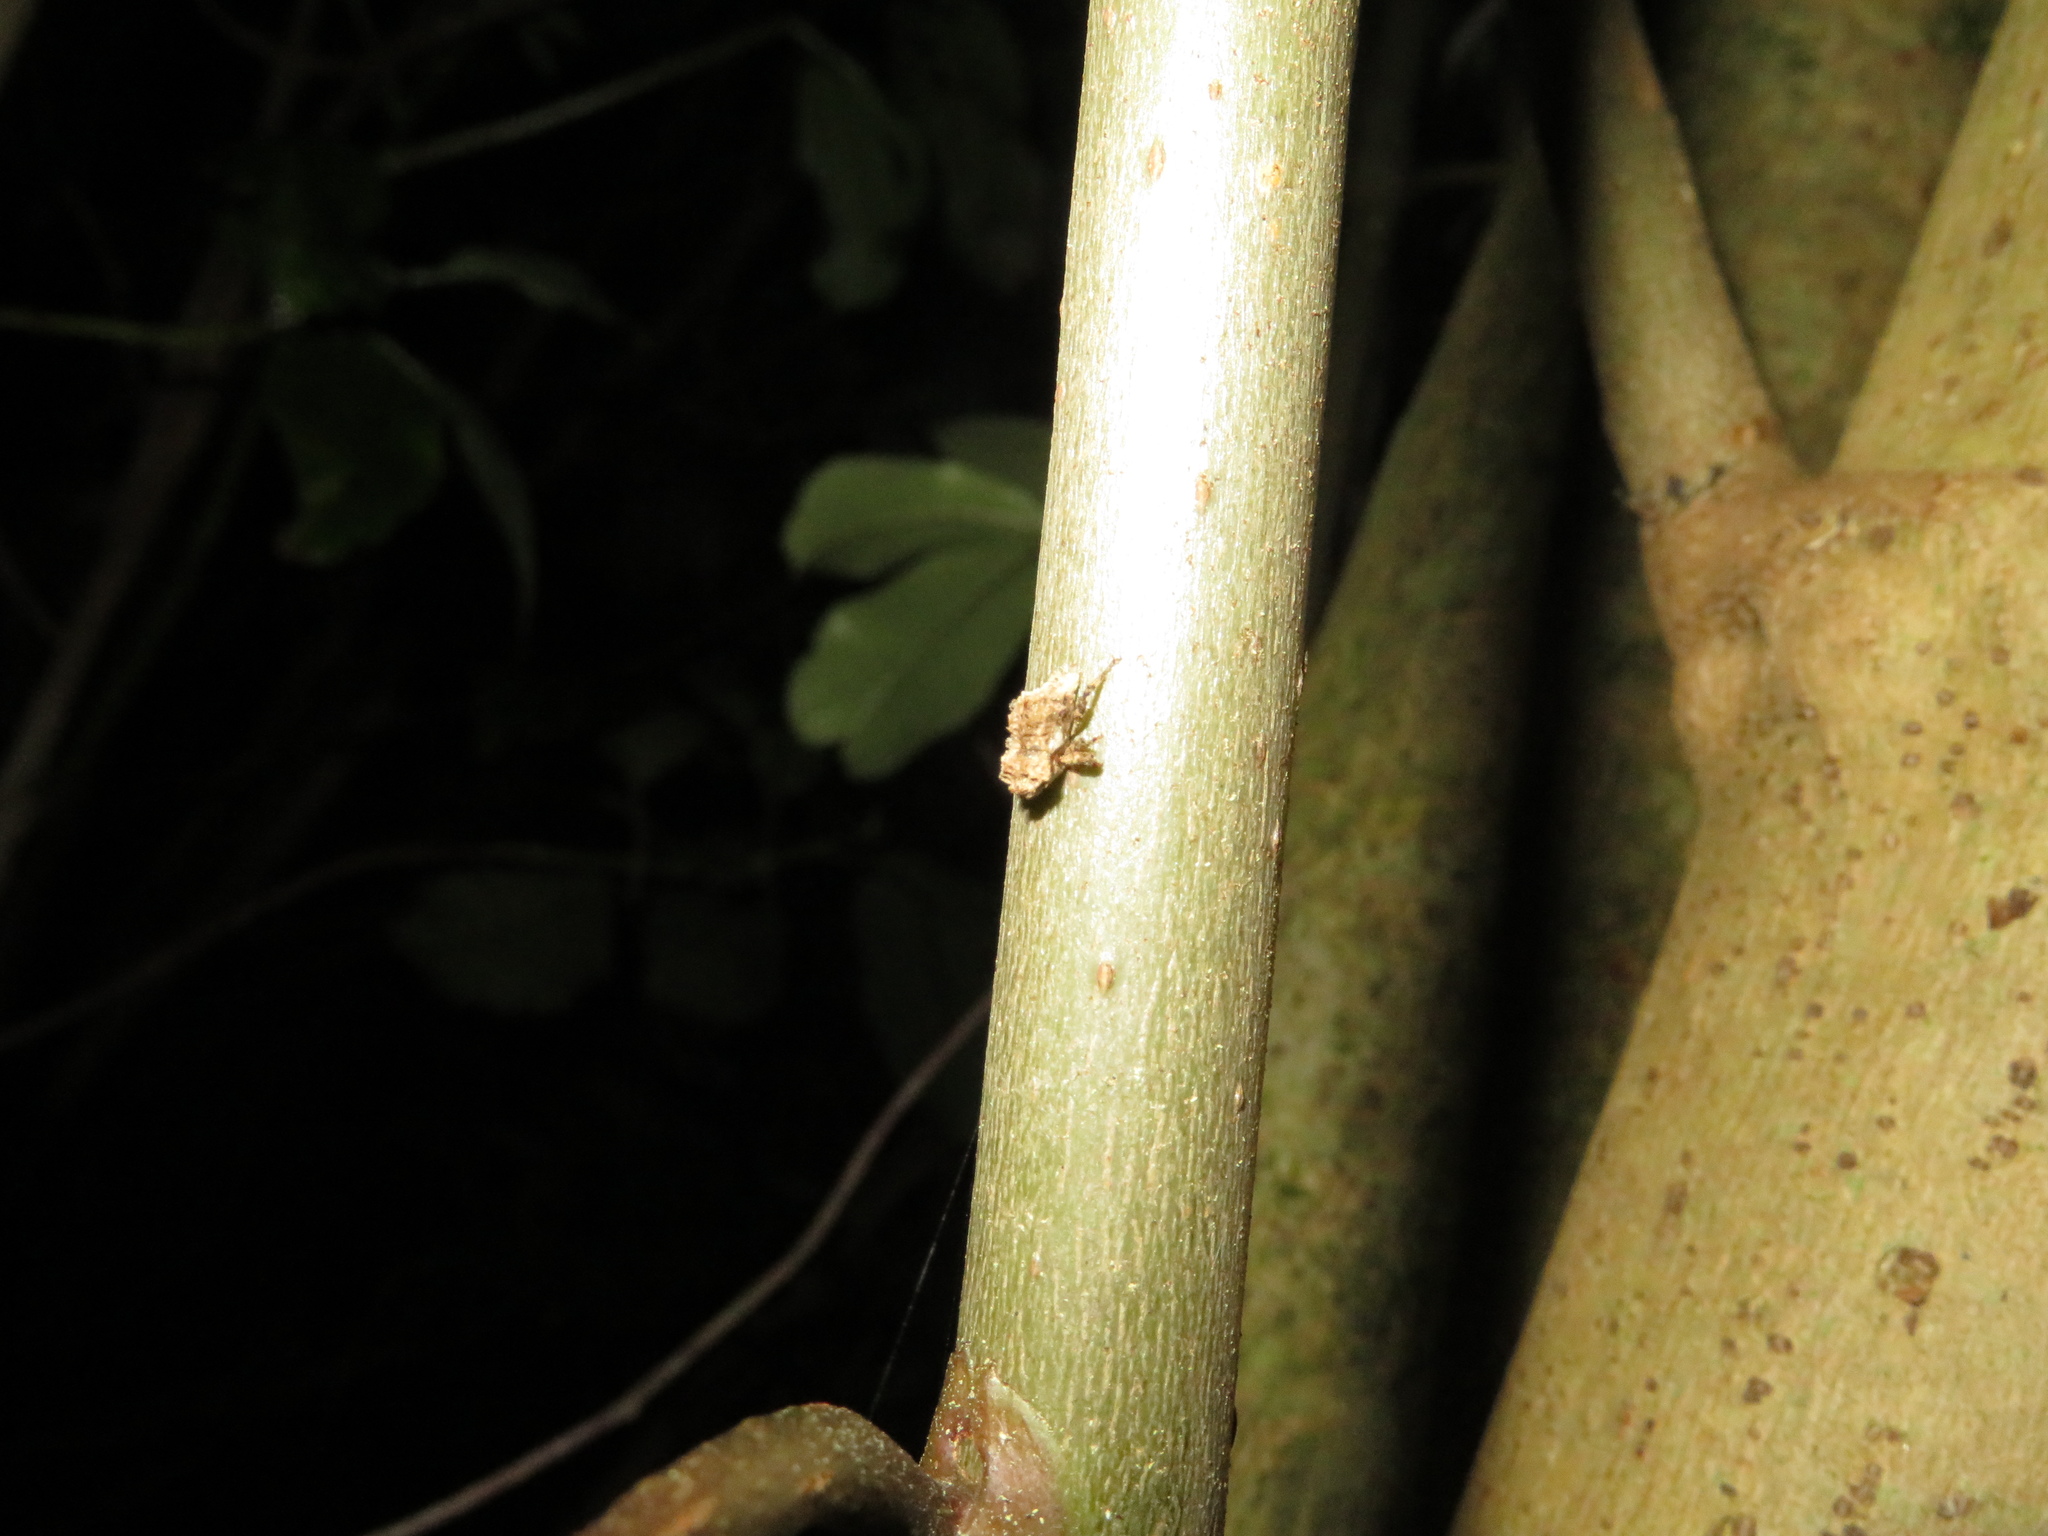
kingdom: Animalia
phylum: Arthropoda
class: Insecta
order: Coleoptera
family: Curculionidae
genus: Indecentia
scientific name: Indecentia nubila
